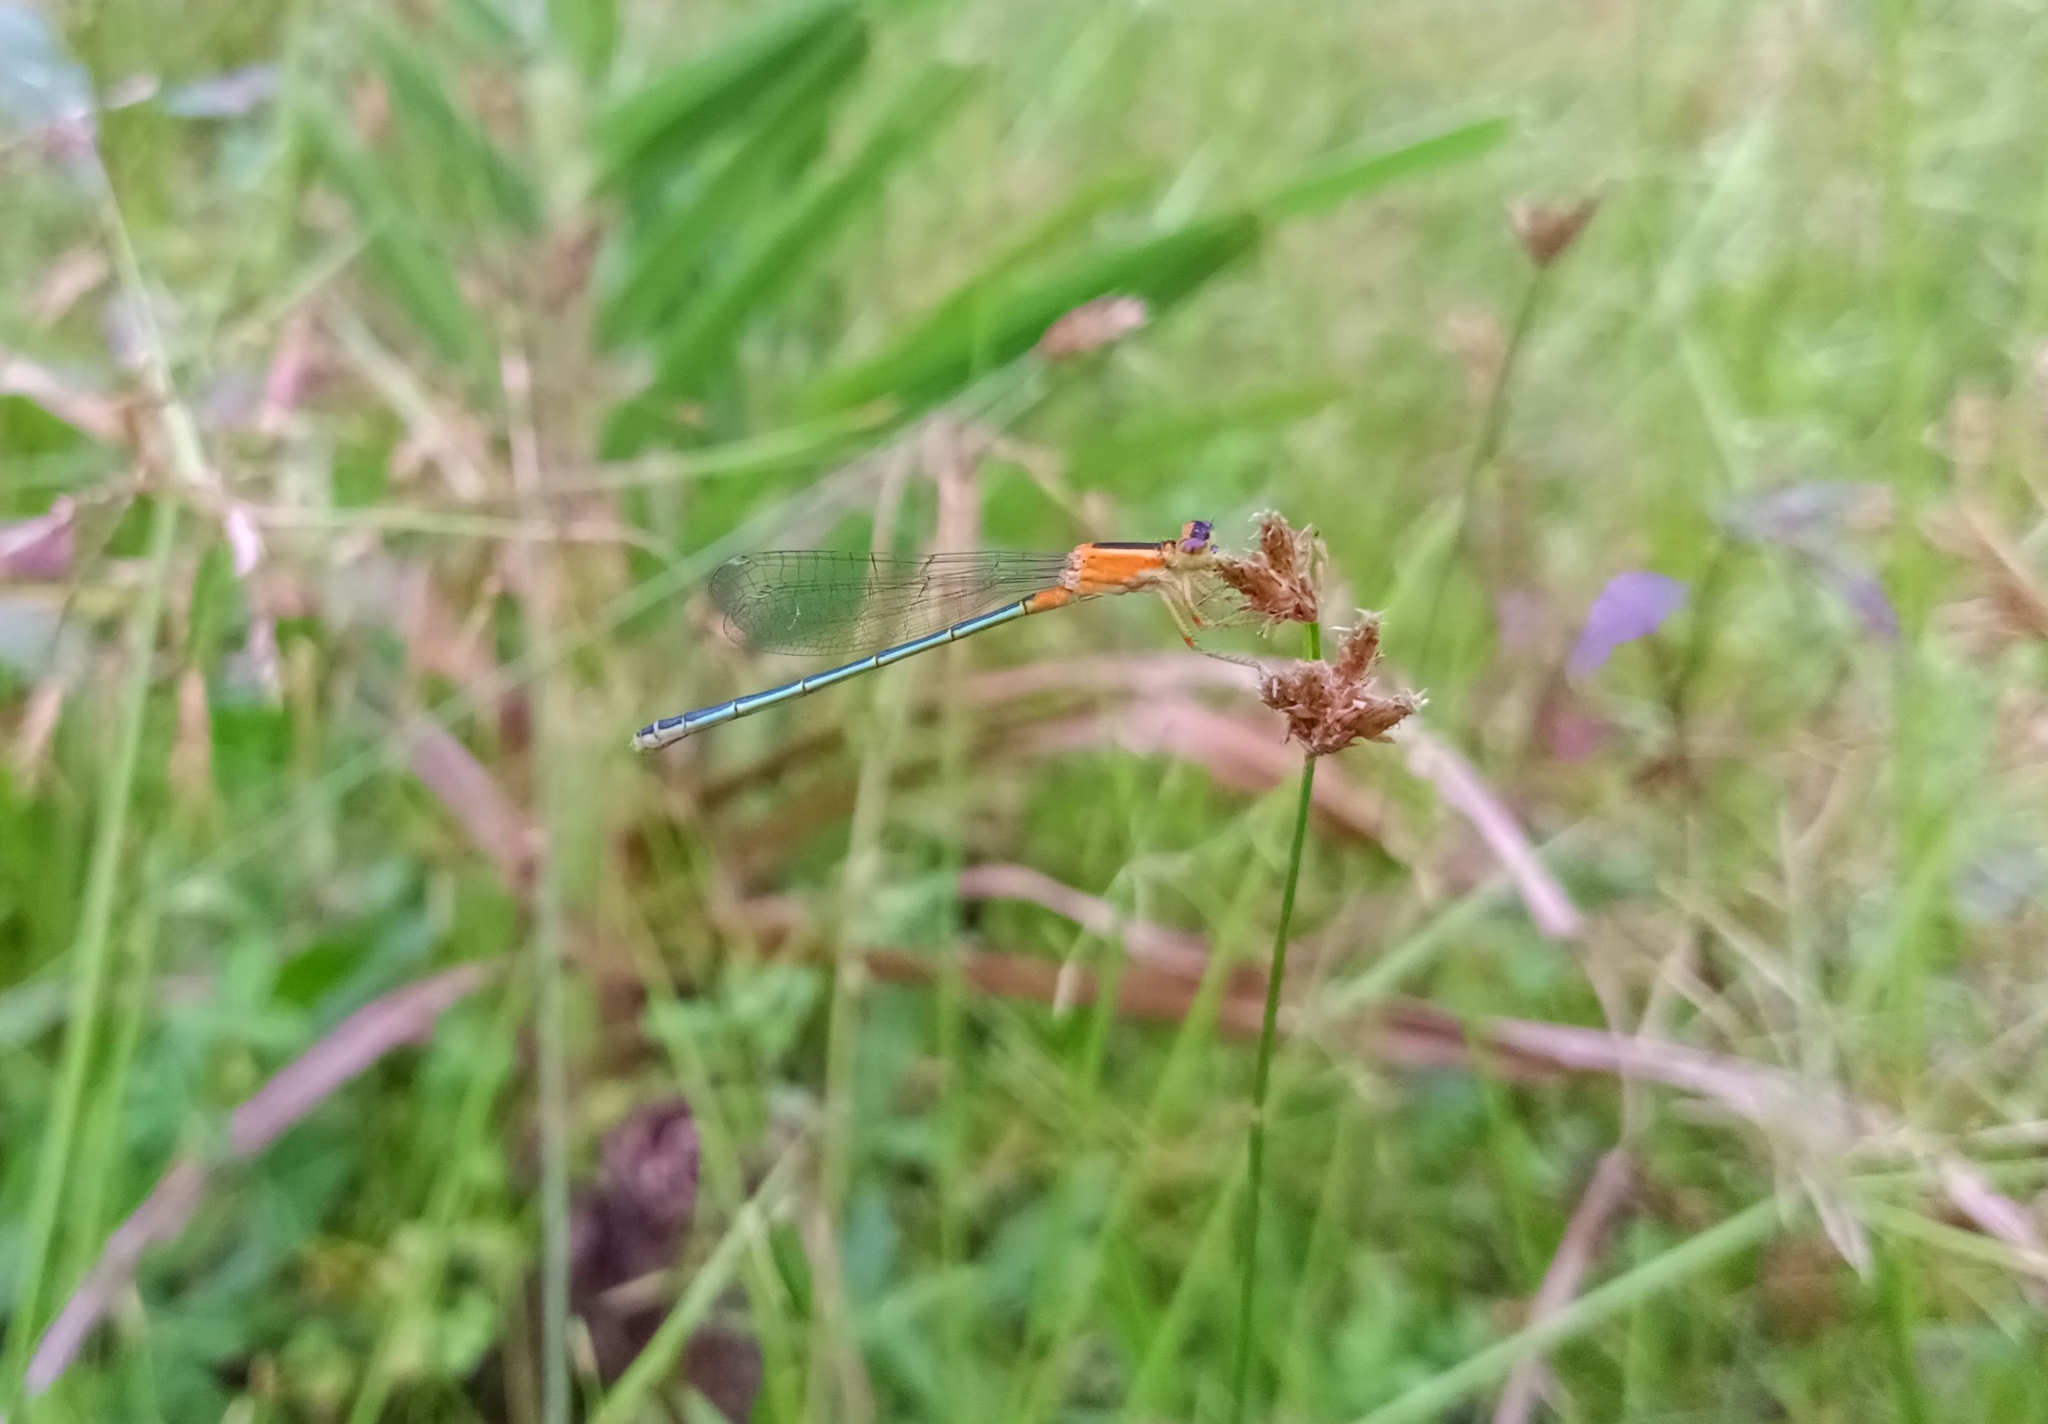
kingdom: Animalia
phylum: Arthropoda
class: Insecta
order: Odonata
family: Coenagrionidae
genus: Ischnura
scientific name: Ischnura senegalensis
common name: Tropical bluetail
